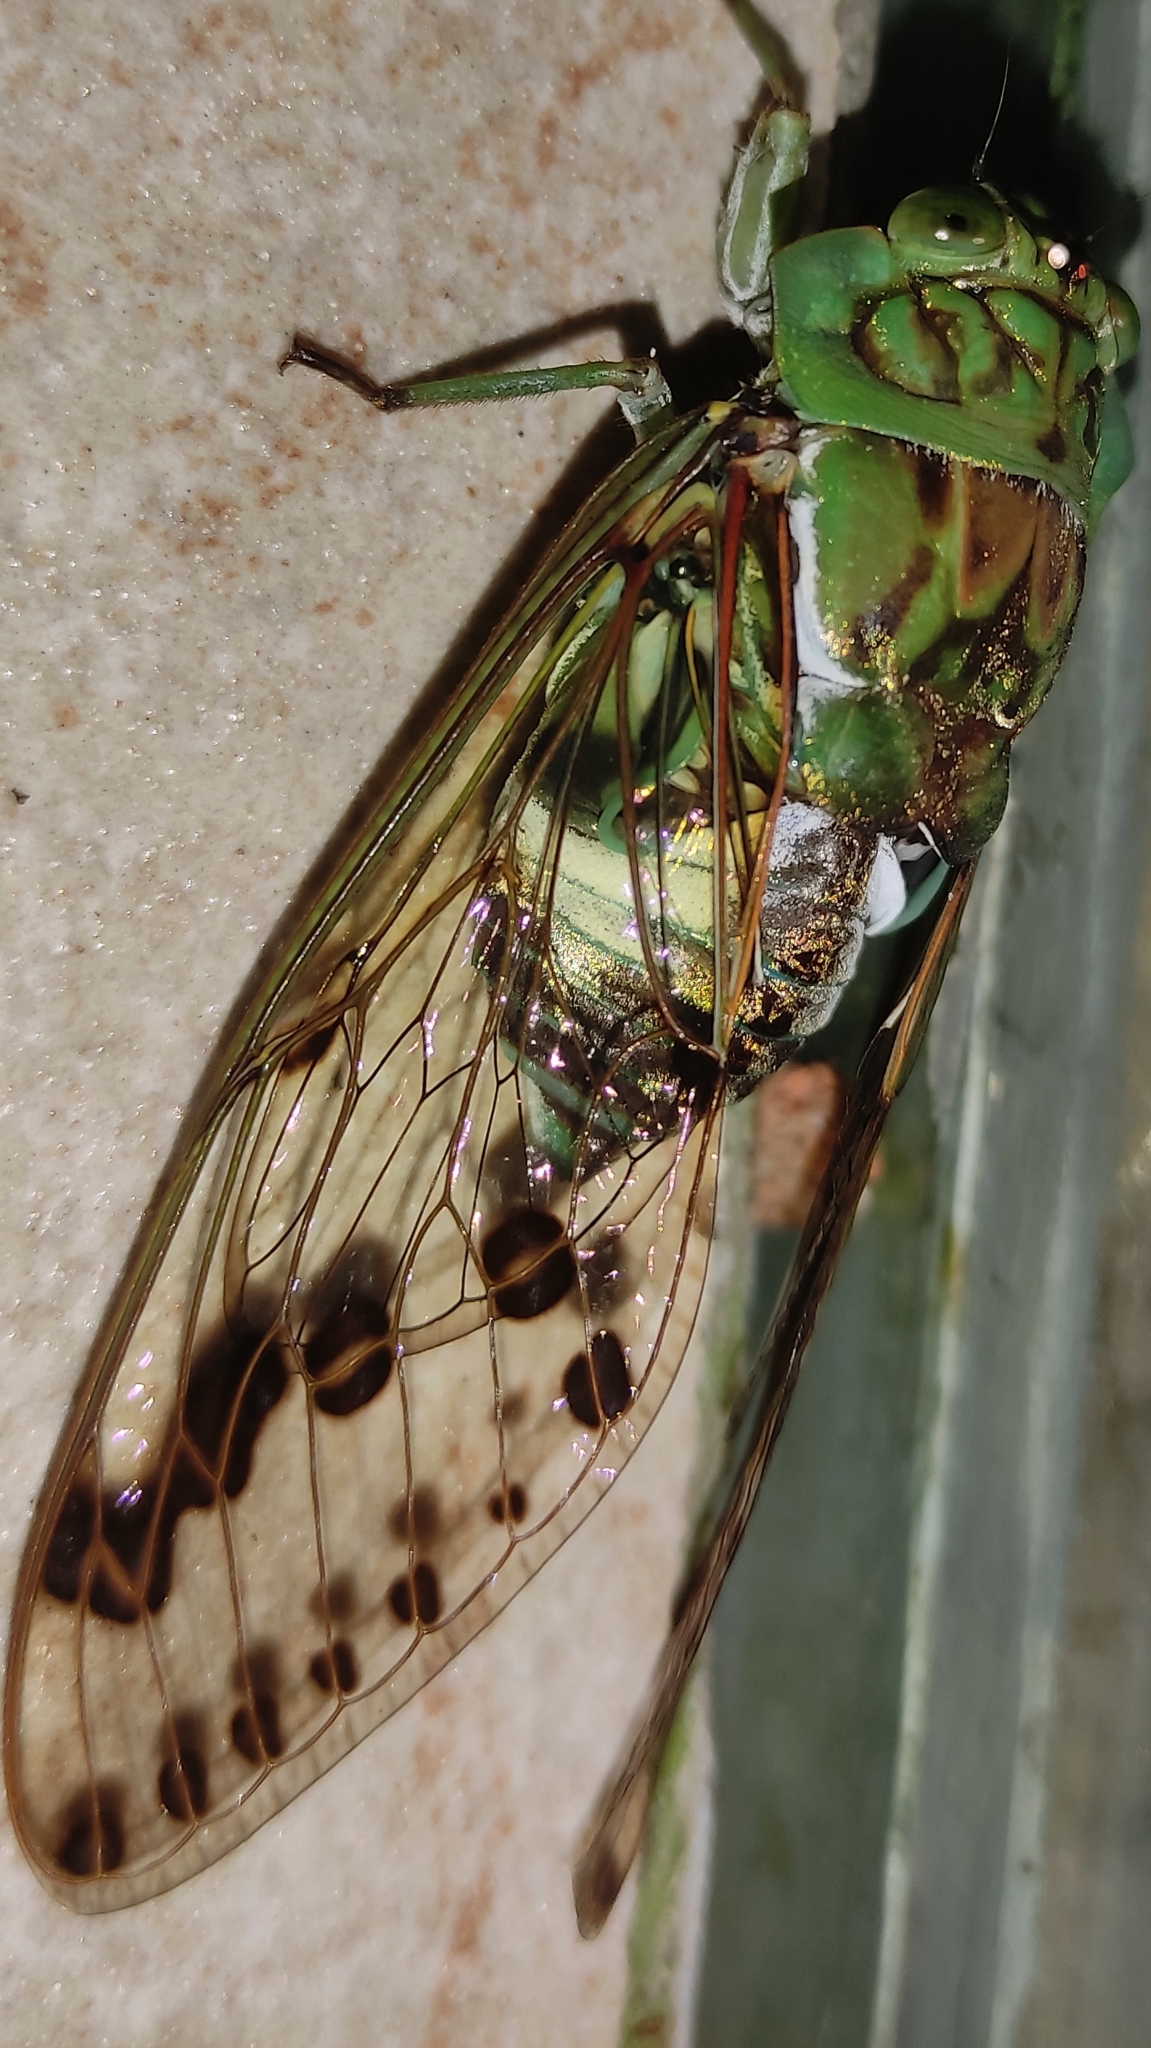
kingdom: Animalia
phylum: Arthropoda
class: Insecta
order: Hemiptera
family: Cicadidae
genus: Zammara
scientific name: Zammara tympanum
